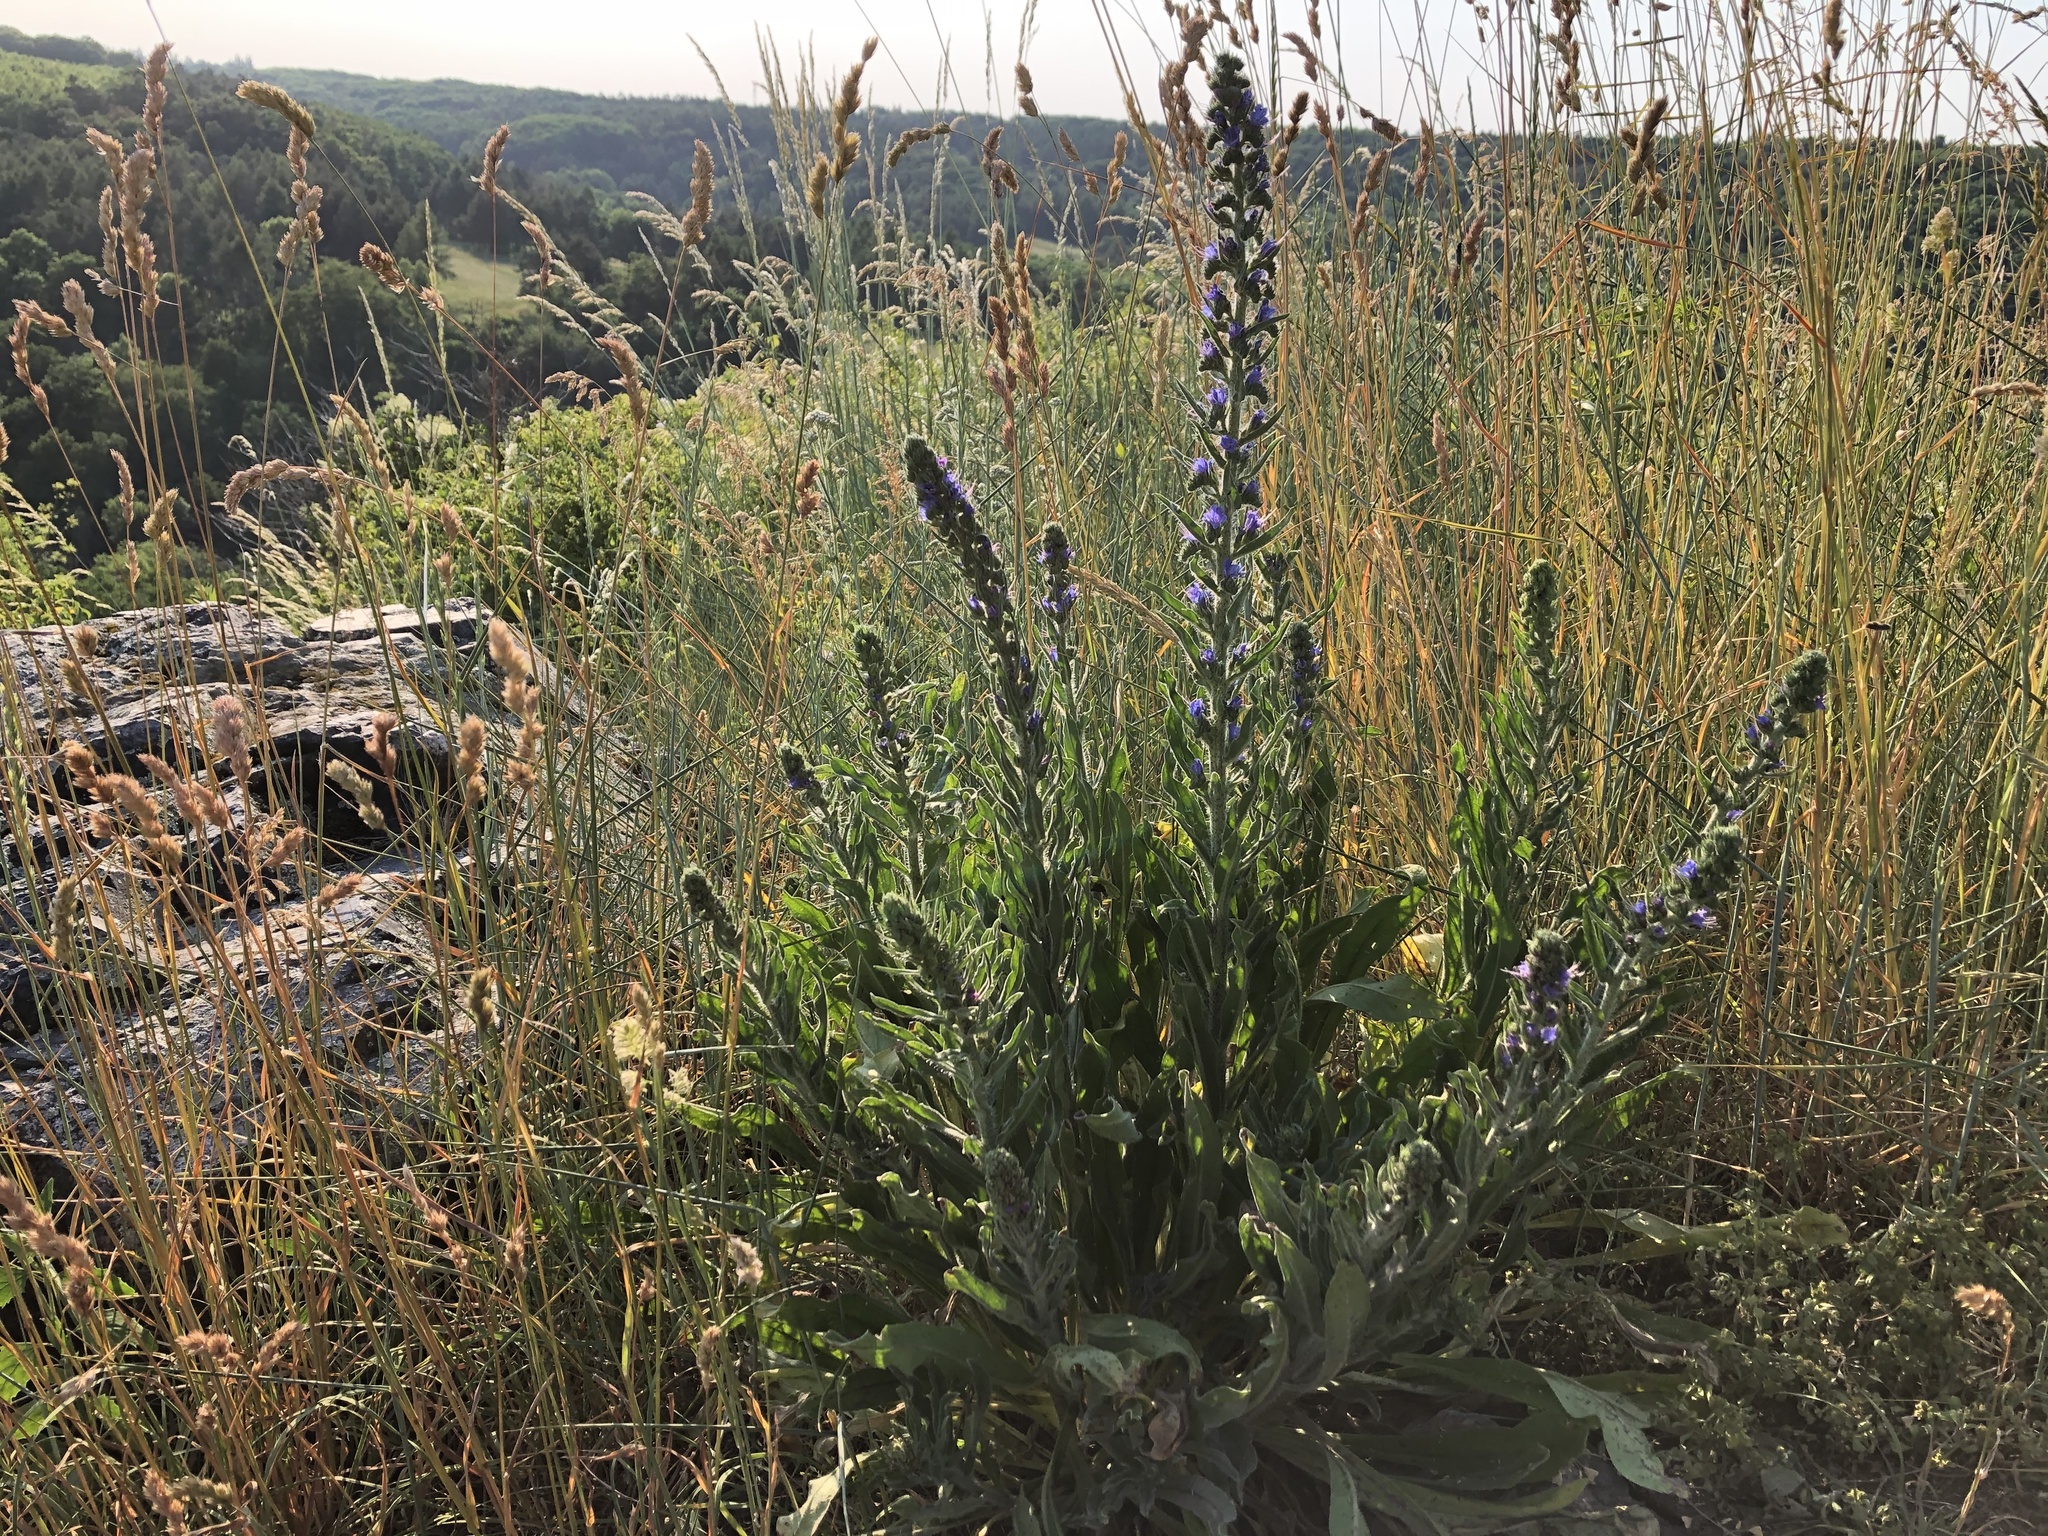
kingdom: Plantae
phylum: Tracheophyta
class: Magnoliopsida
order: Boraginales
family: Boraginaceae
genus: Echium
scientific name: Echium vulgare
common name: Common viper's bugloss
